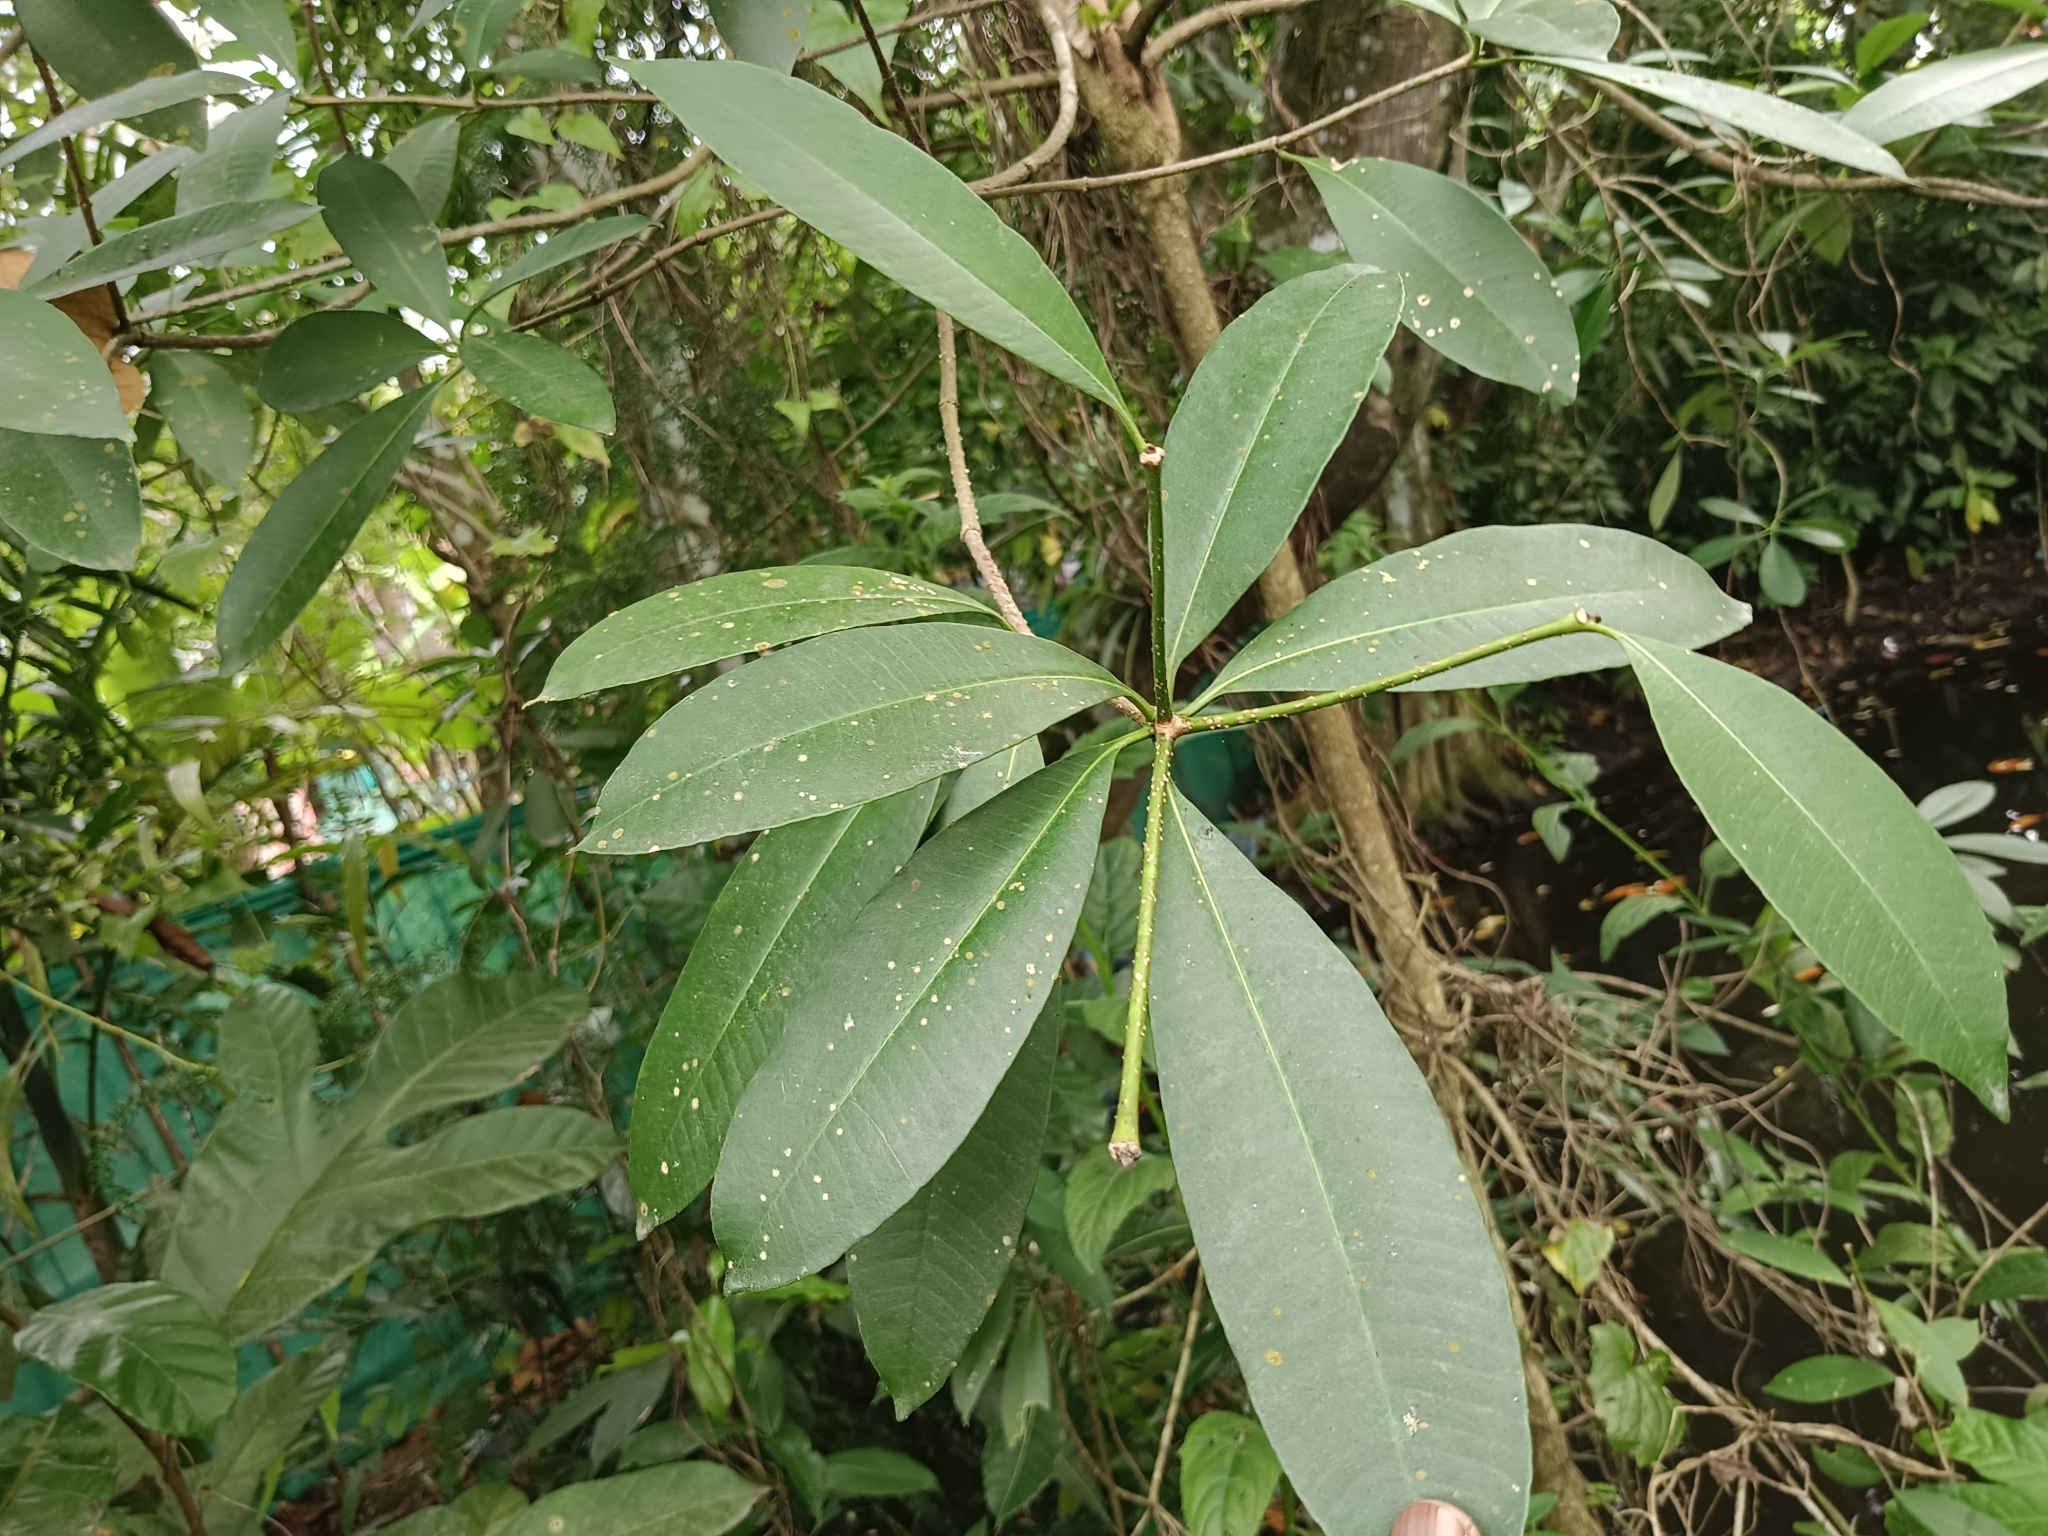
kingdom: Plantae
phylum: Tracheophyta
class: Magnoliopsida
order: Gentianales
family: Apocynaceae
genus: Alstonia
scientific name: Alstonia scholaris
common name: White cheesewood
